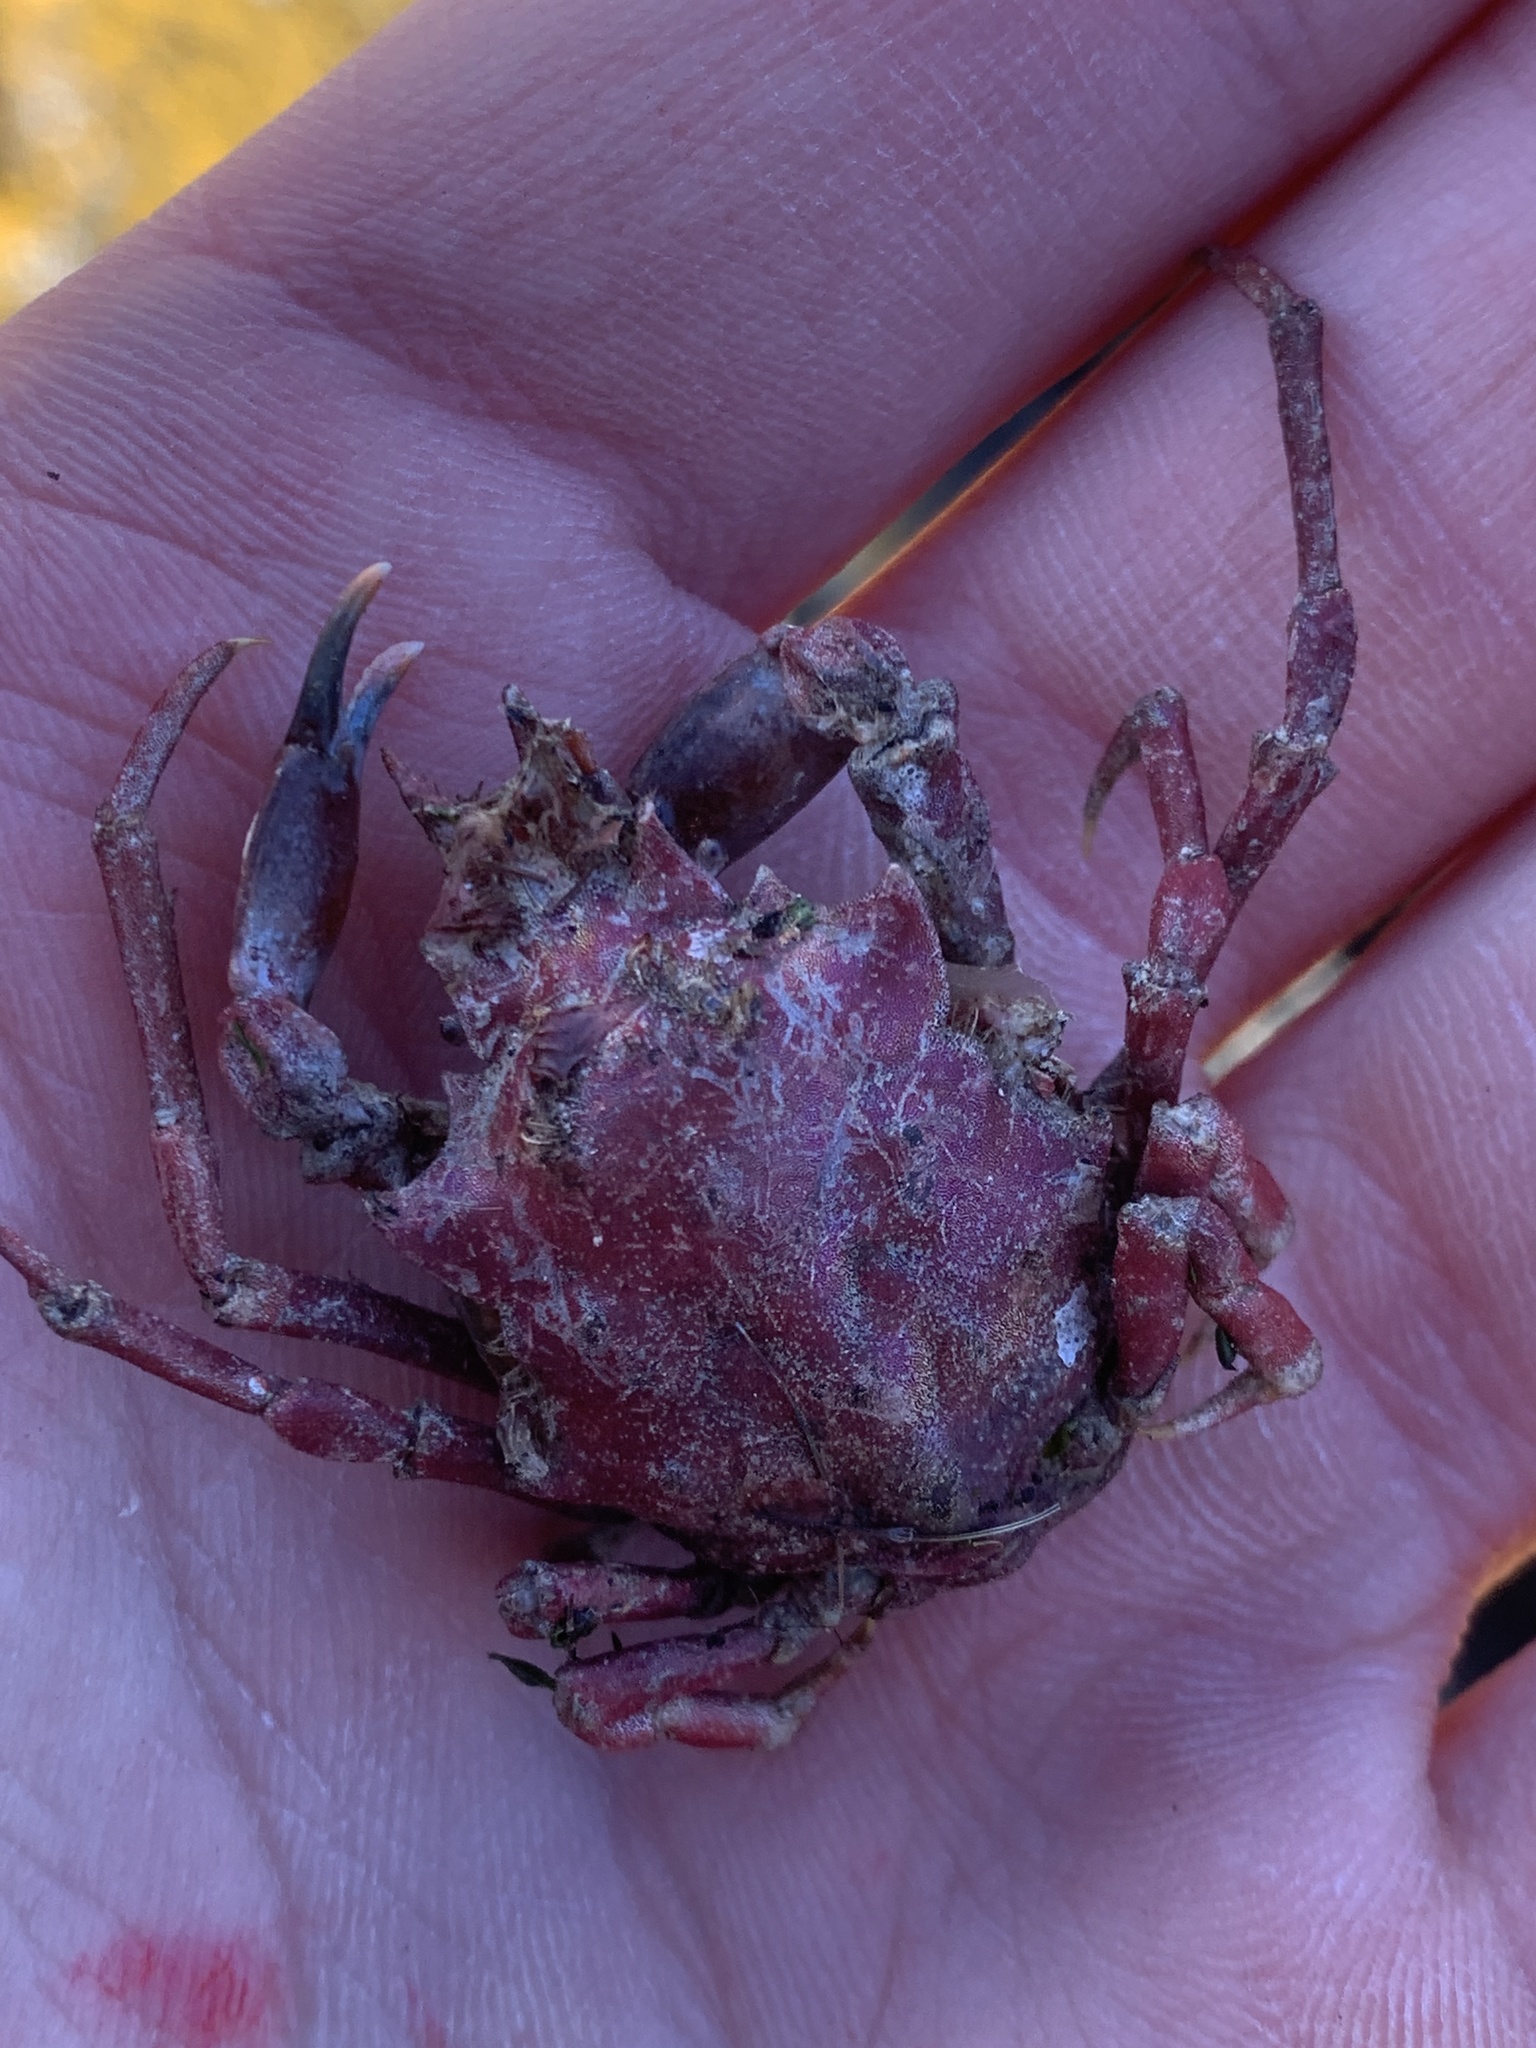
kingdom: Animalia
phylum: Arthropoda
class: Malacostraca
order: Decapoda
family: Epialtidae
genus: Pugettia
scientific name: Pugettia gracilis
